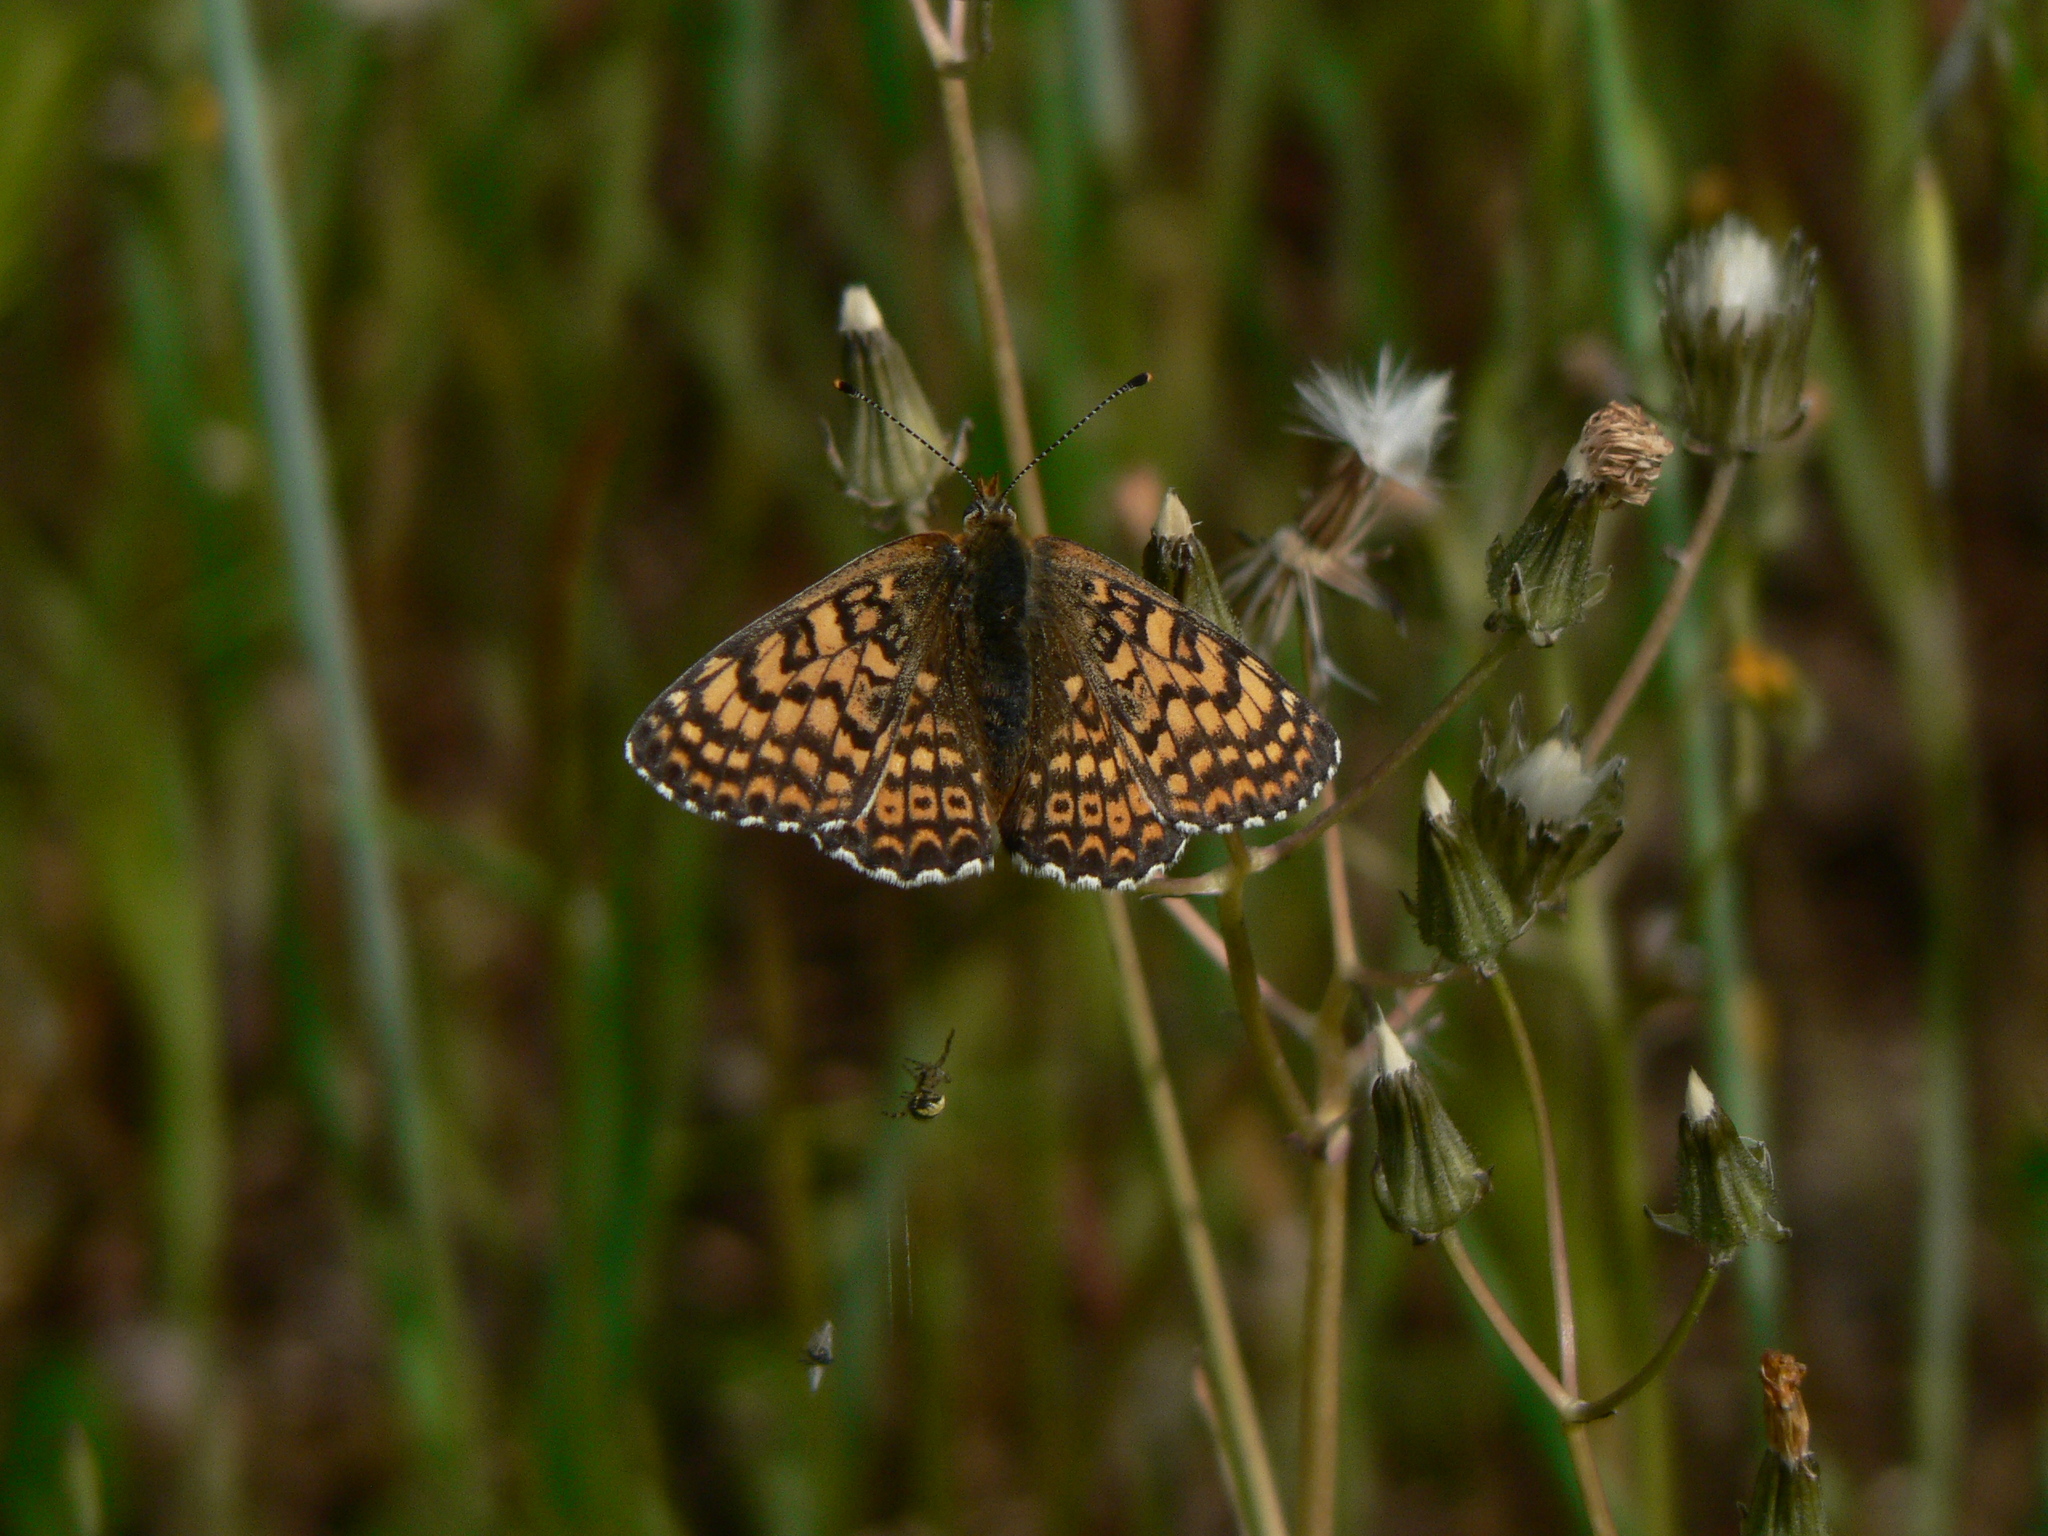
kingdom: Animalia
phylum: Arthropoda
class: Insecta
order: Lepidoptera
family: Nymphalidae
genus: Melitaea
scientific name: Melitaea cinxia
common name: Glanville fritillary
